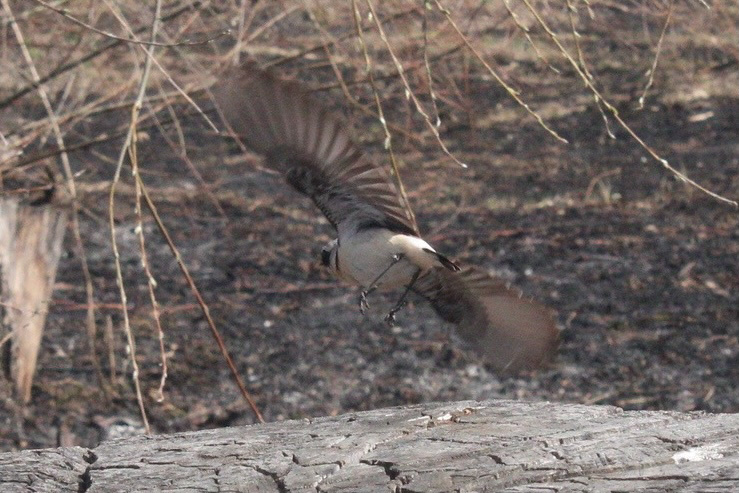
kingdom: Animalia
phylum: Chordata
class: Aves
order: Passeriformes
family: Muscicapidae
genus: Oenanthe
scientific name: Oenanthe oenanthe
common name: Northern wheatear
